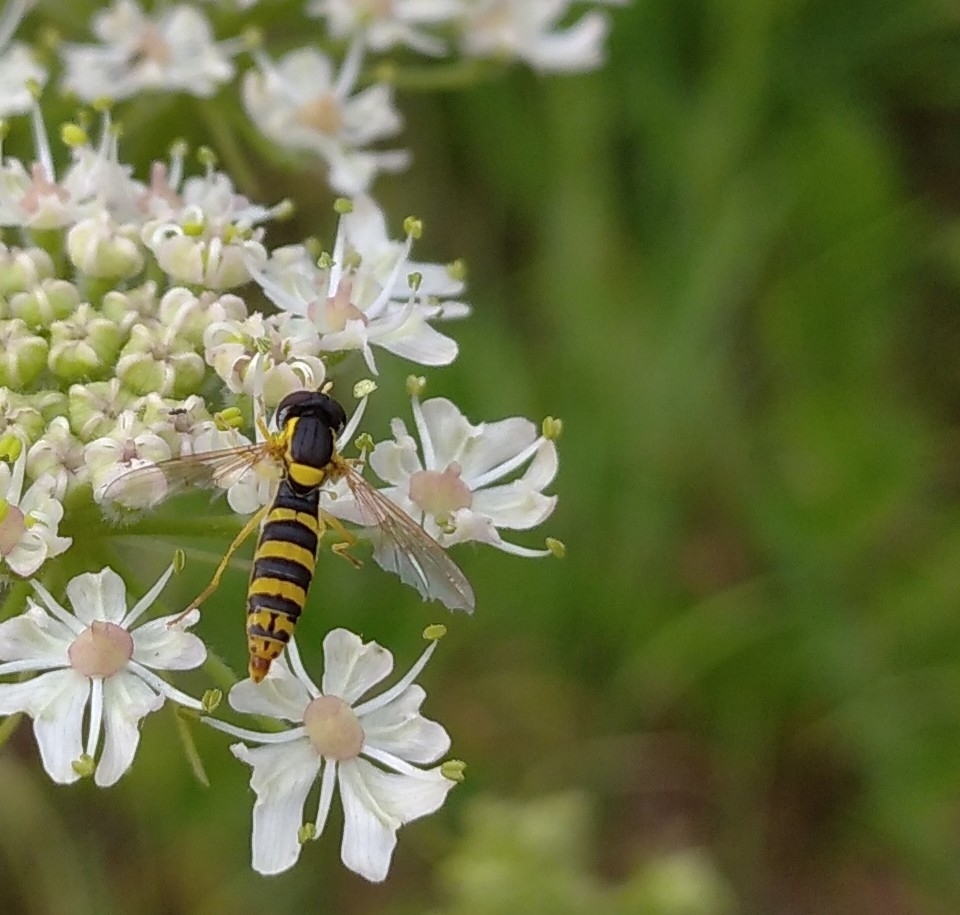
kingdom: Animalia
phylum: Arthropoda
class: Insecta
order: Diptera
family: Syrphidae
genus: Sphaerophoria
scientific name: Sphaerophoria
